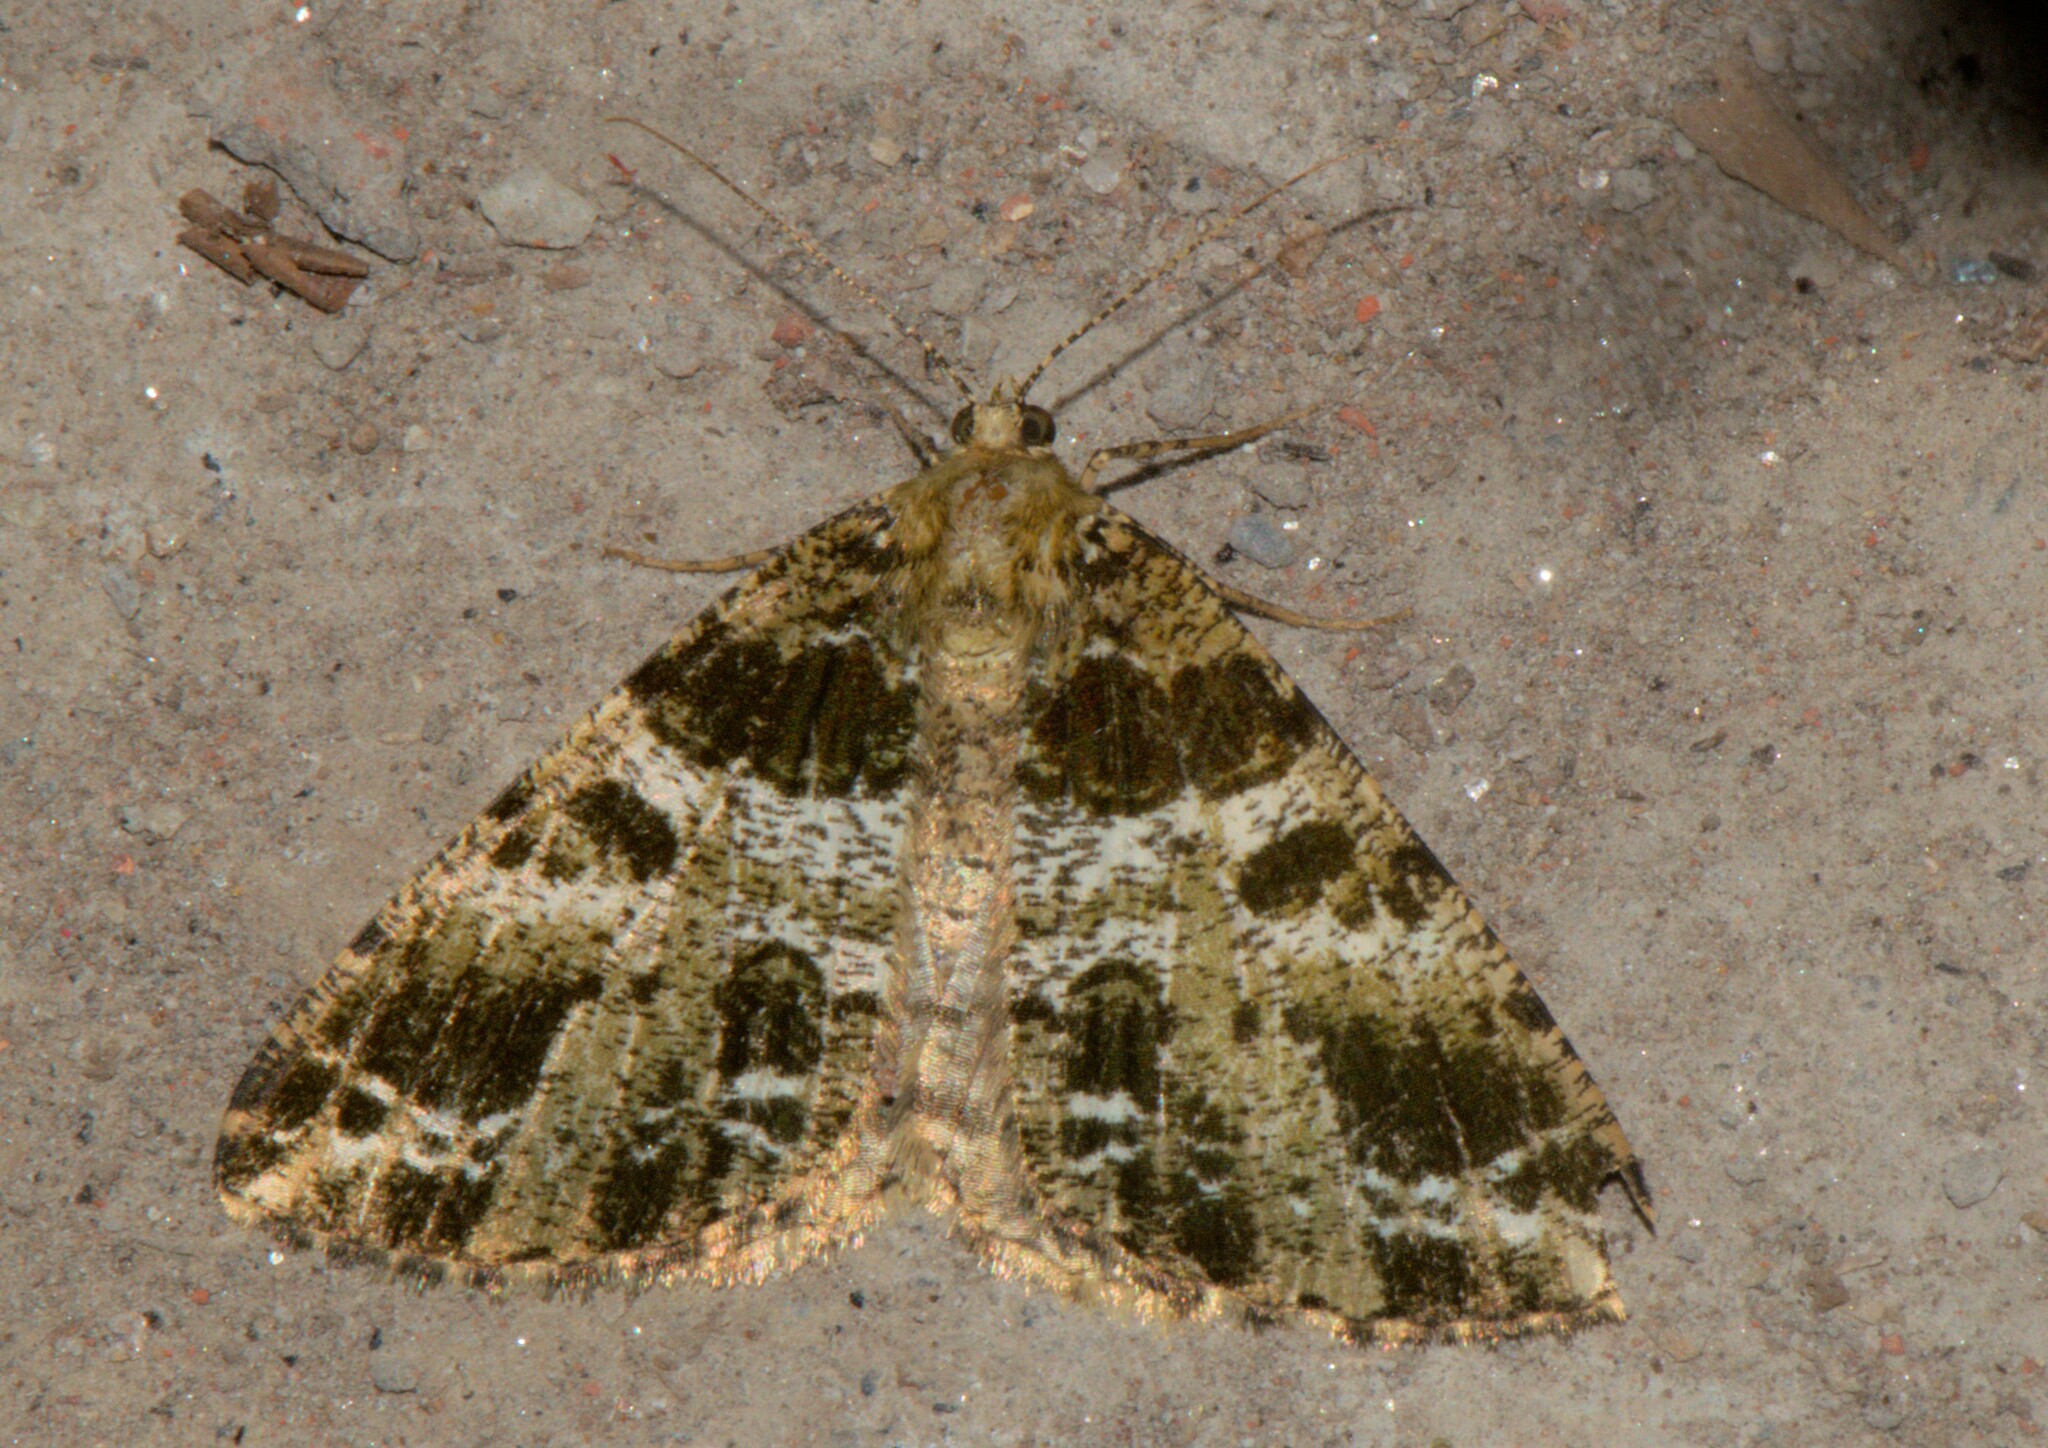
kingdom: Animalia
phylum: Arthropoda
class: Insecta
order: Lepidoptera
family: Geometridae
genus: Arichanna
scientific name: Arichanna
